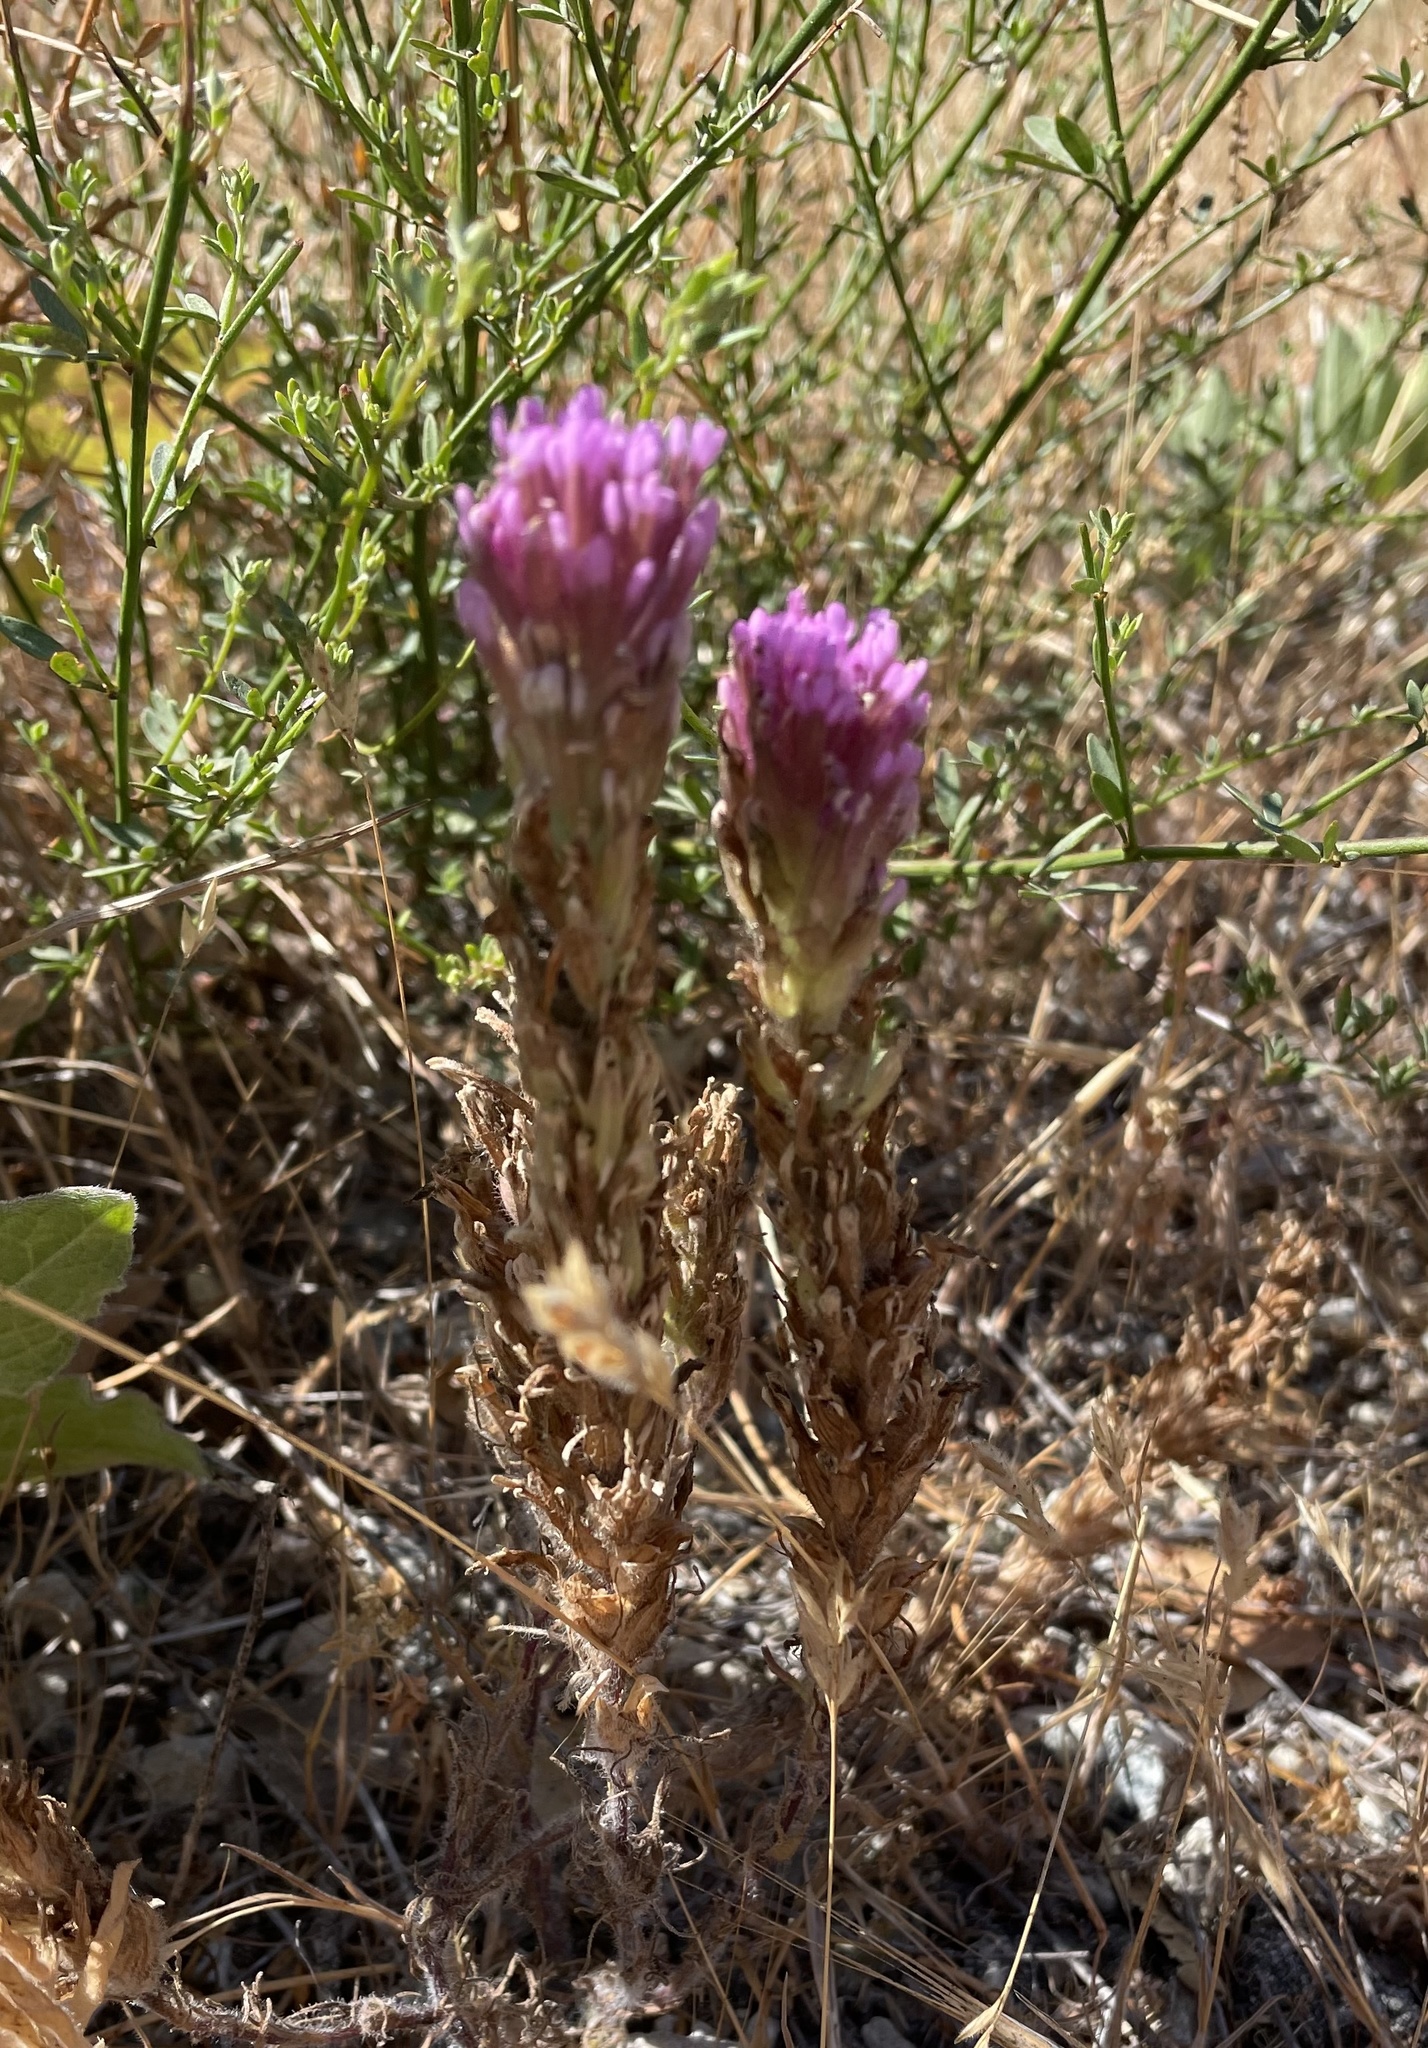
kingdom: Plantae
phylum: Tracheophyta
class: Magnoliopsida
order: Lamiales
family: Orobanchaceae
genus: Castilleja
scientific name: Castilleja exserta
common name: Purple owl-clover
